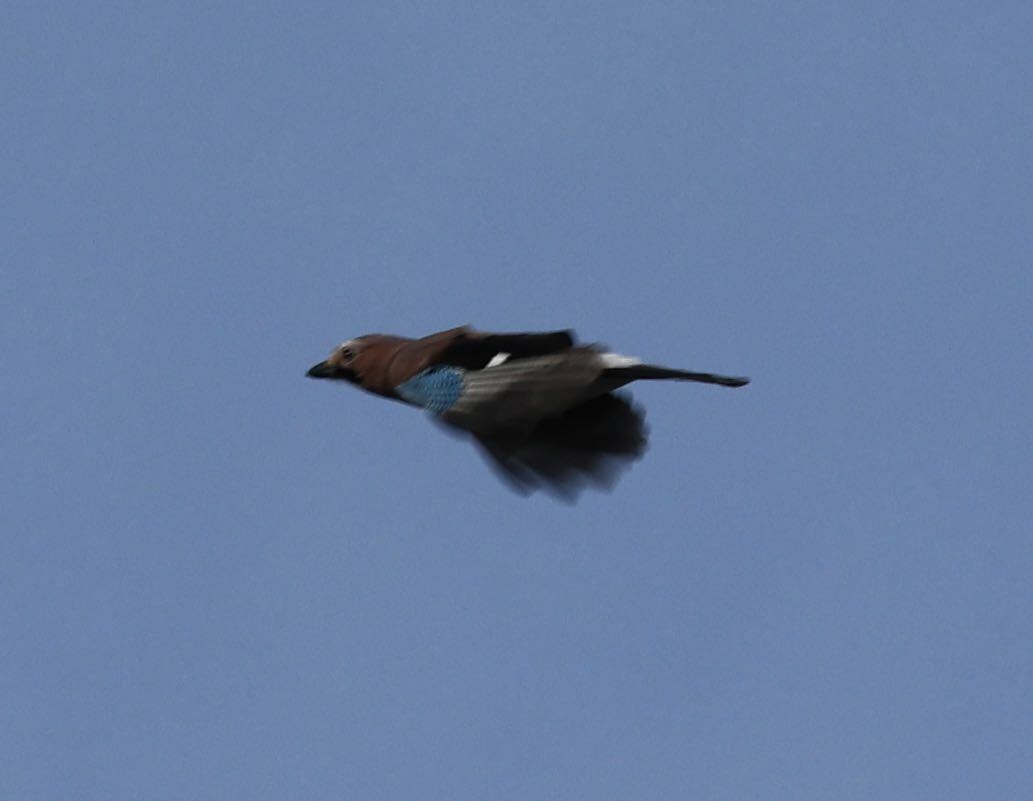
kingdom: Animalia
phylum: Chordata
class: Aves
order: Passeriformes
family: Corvidae
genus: Garrulus
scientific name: Garrulus glandarius
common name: Eurasian jay
